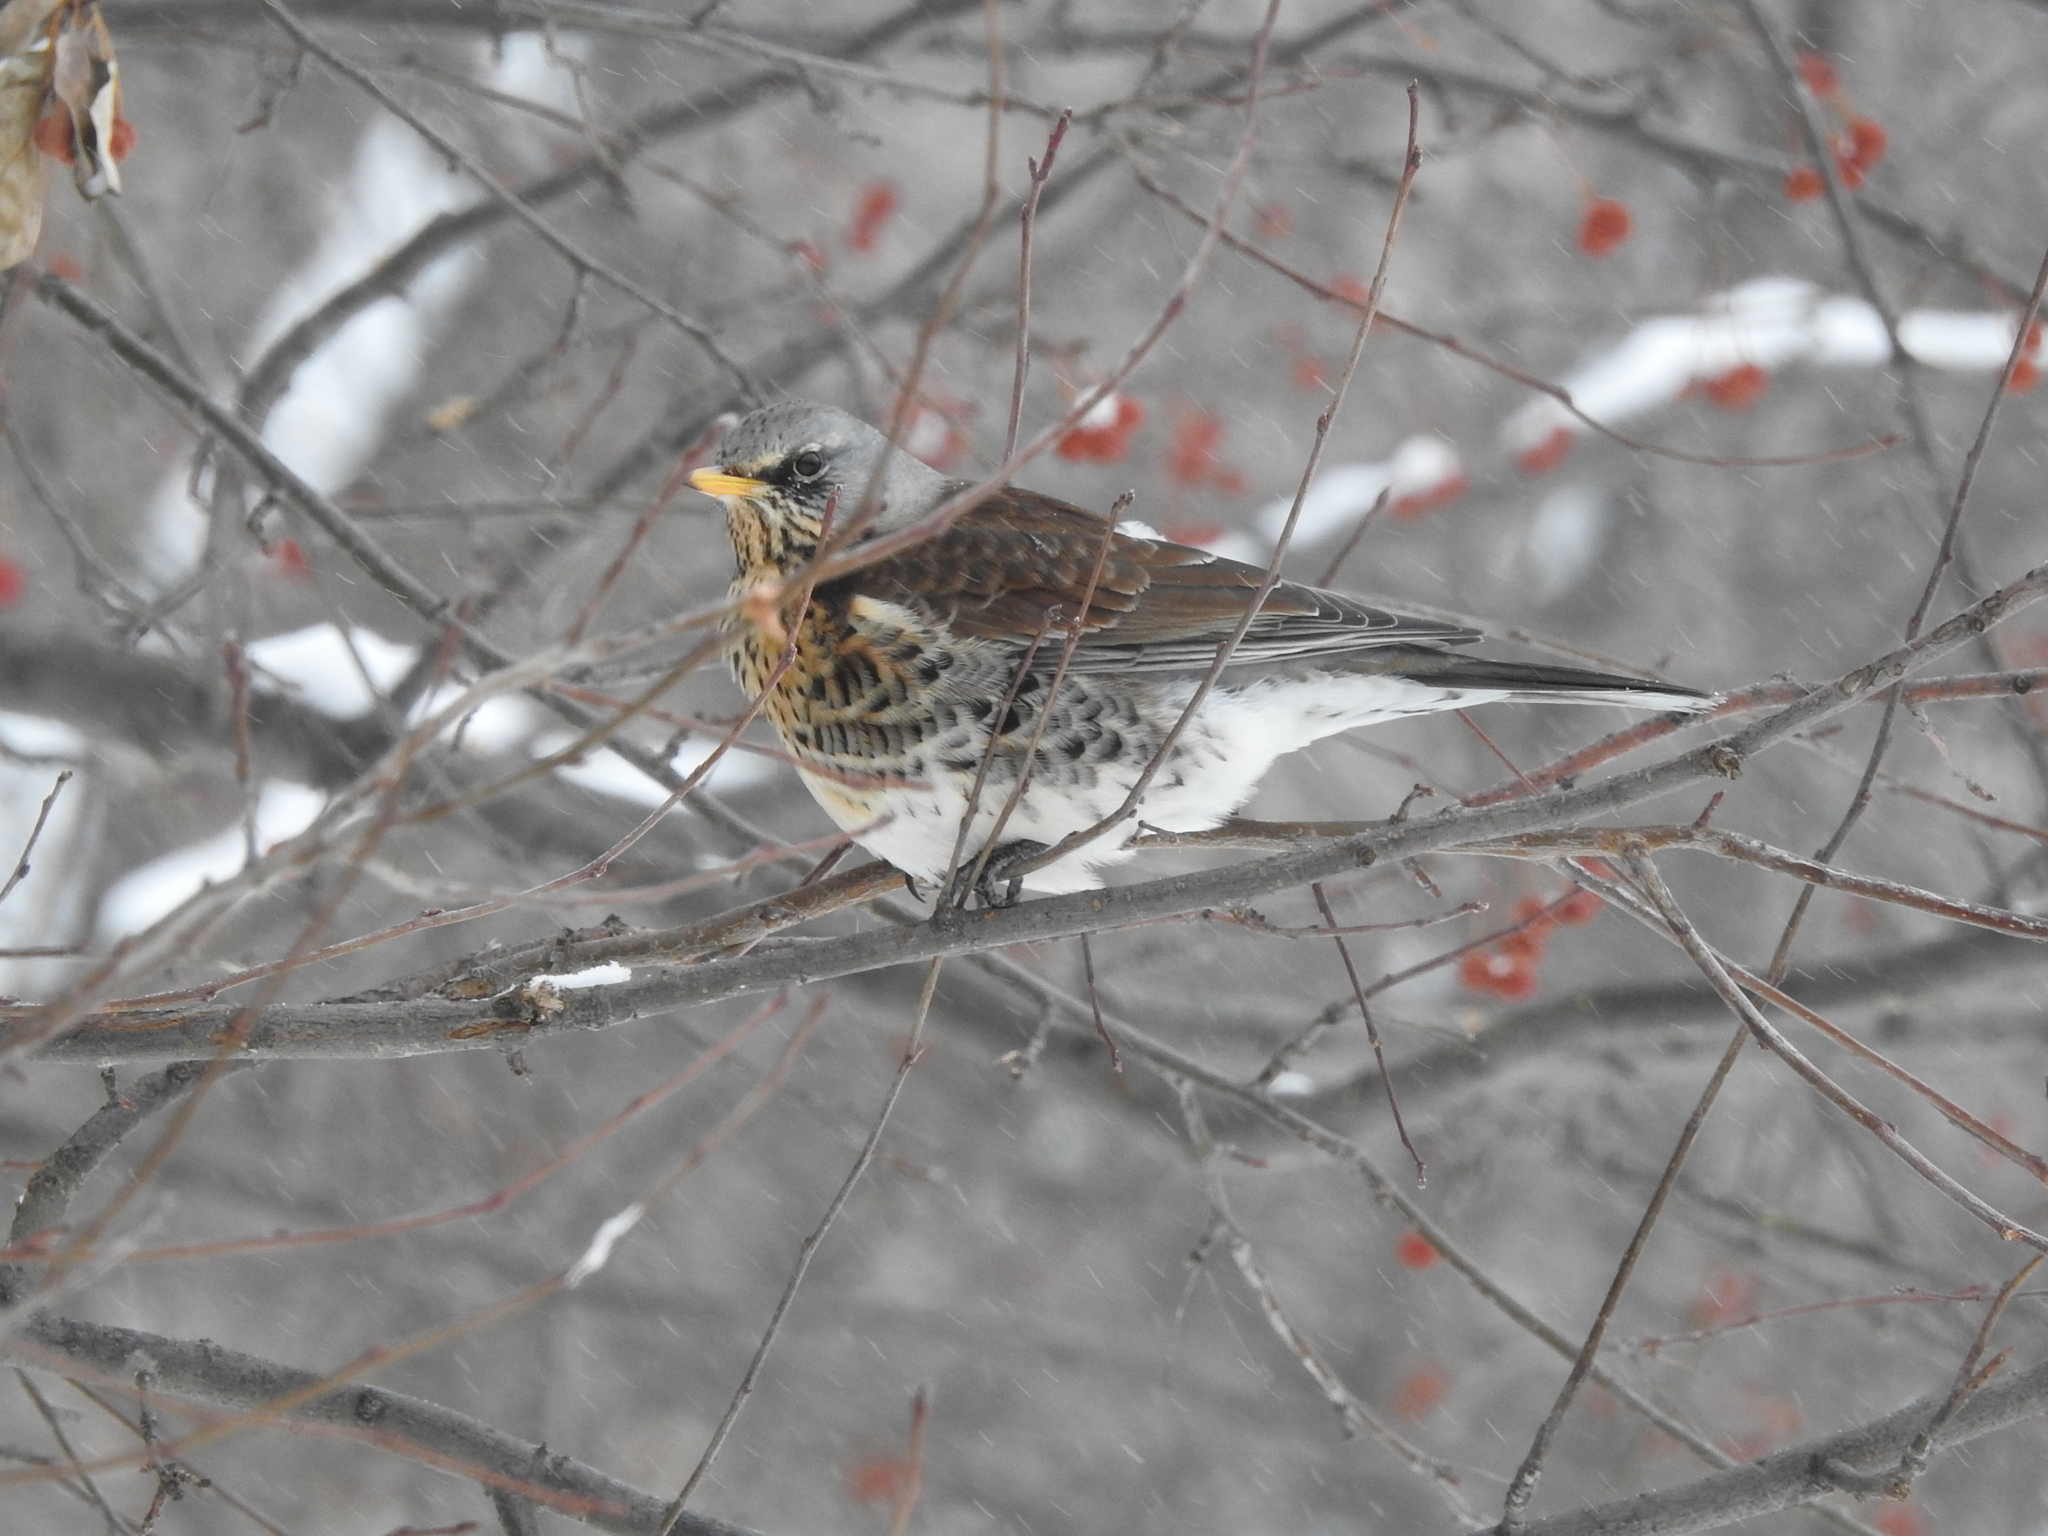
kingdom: Animalia
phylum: Chordata
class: Aves
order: Passeriformes
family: Turdidae
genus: Turdus
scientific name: Turdus pilaris
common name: Fieldfare
